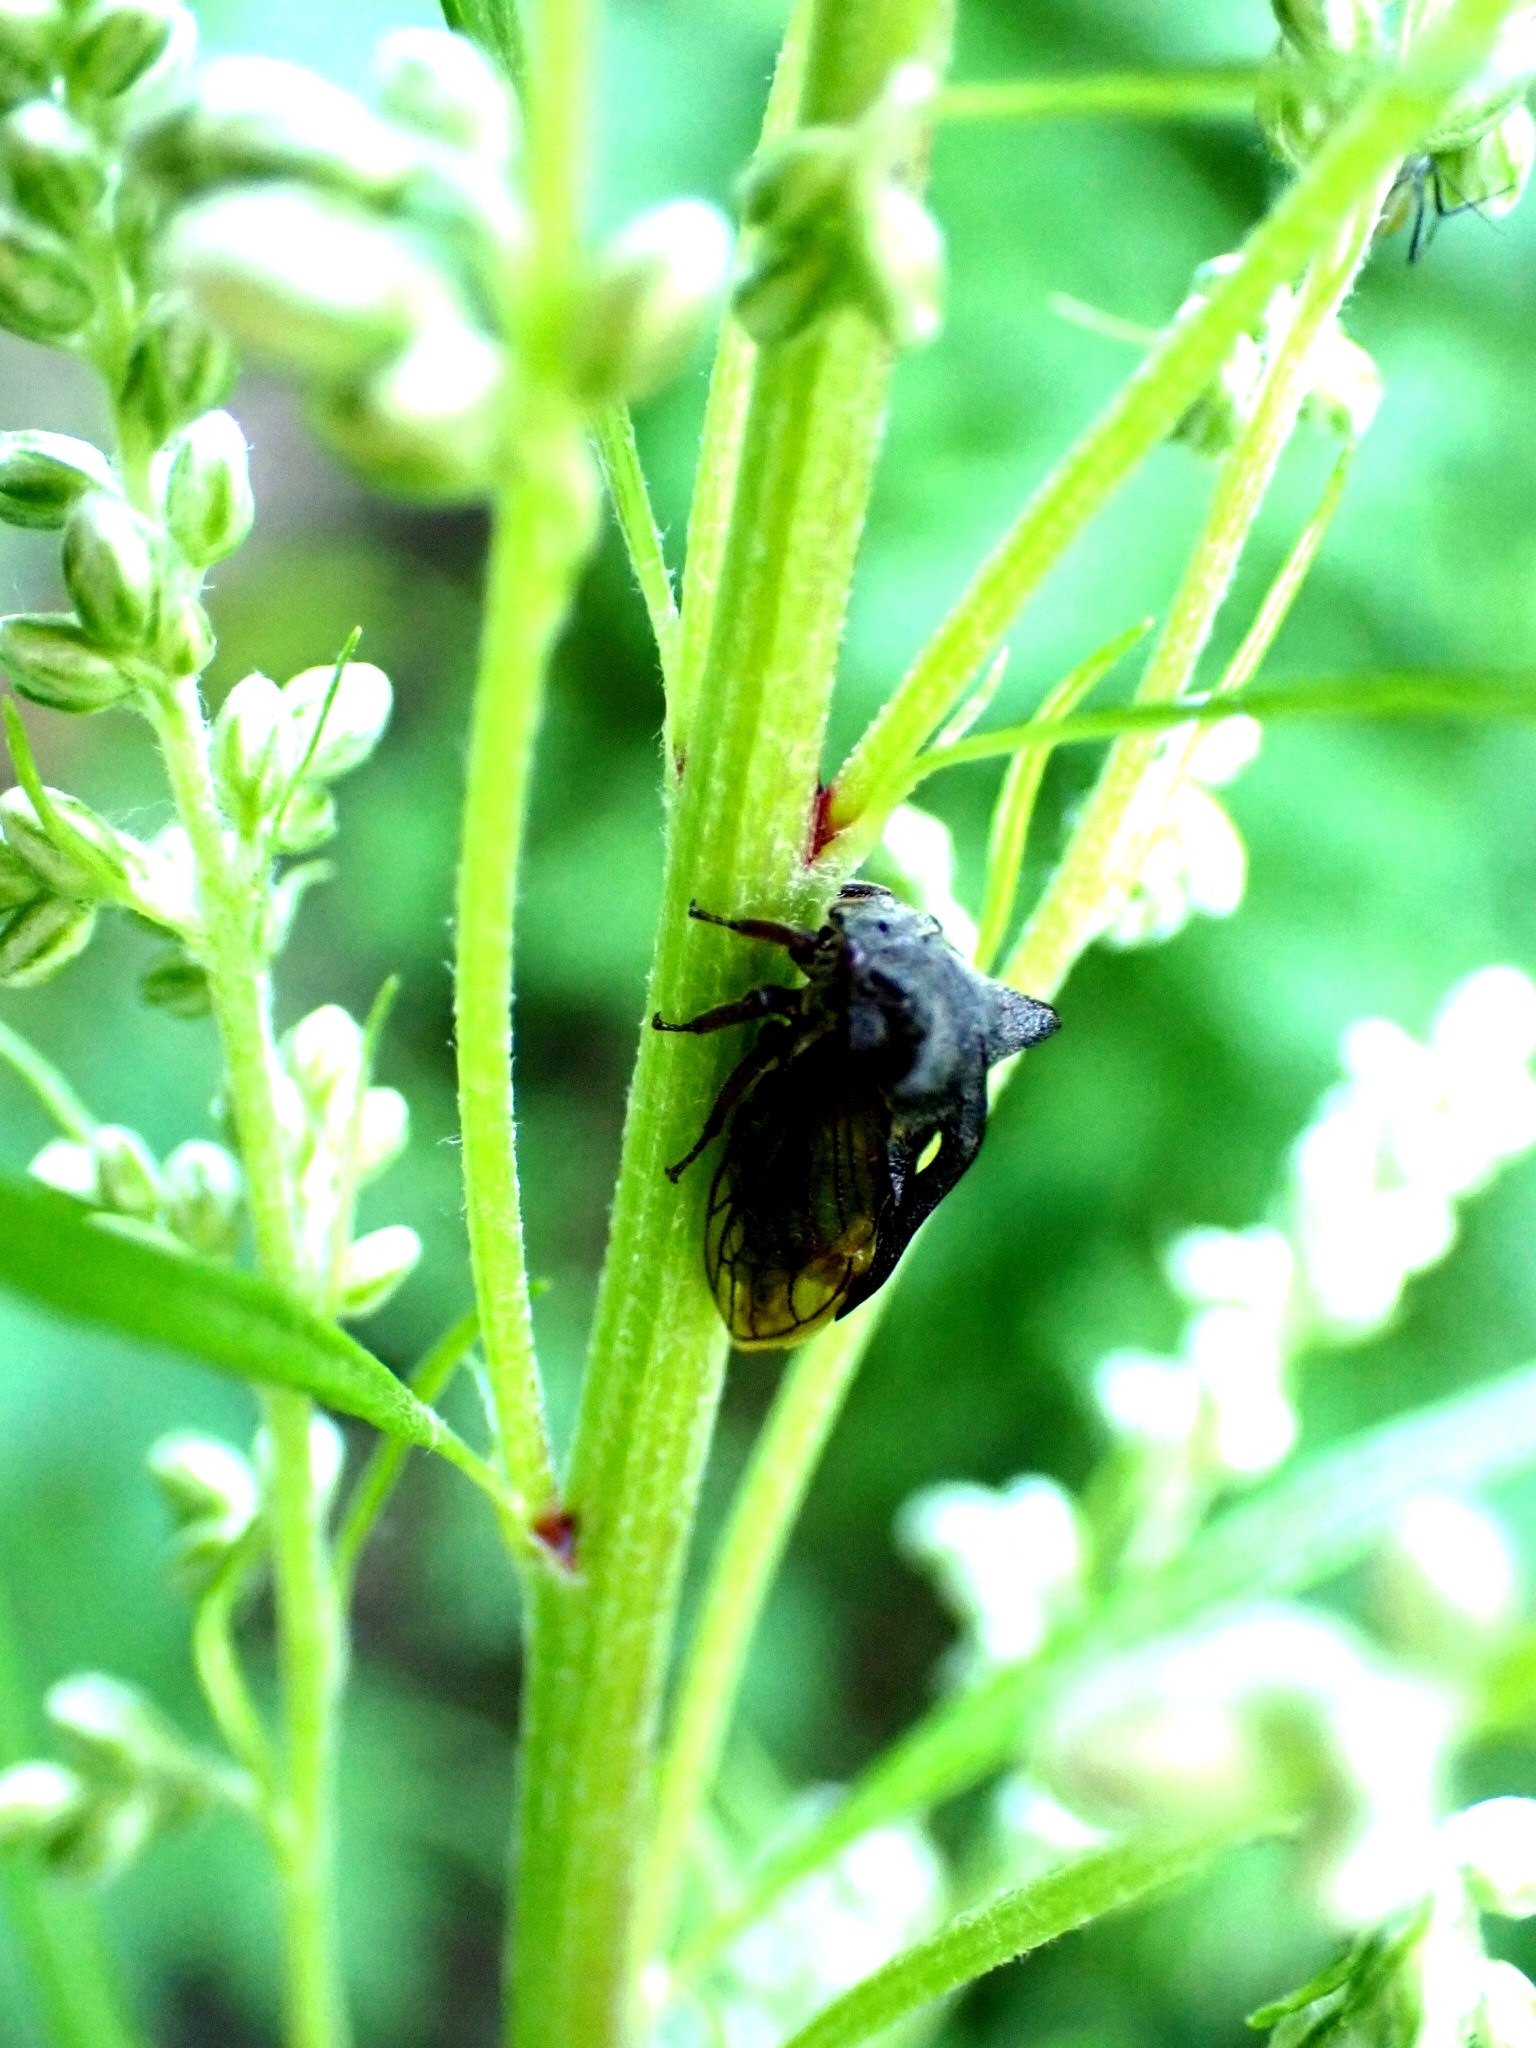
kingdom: Animalia
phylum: Arthropoda
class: Insecta
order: Hemiptera
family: Membracidae
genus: Centrotus
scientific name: Centrotus cornuta
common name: Treehopper
